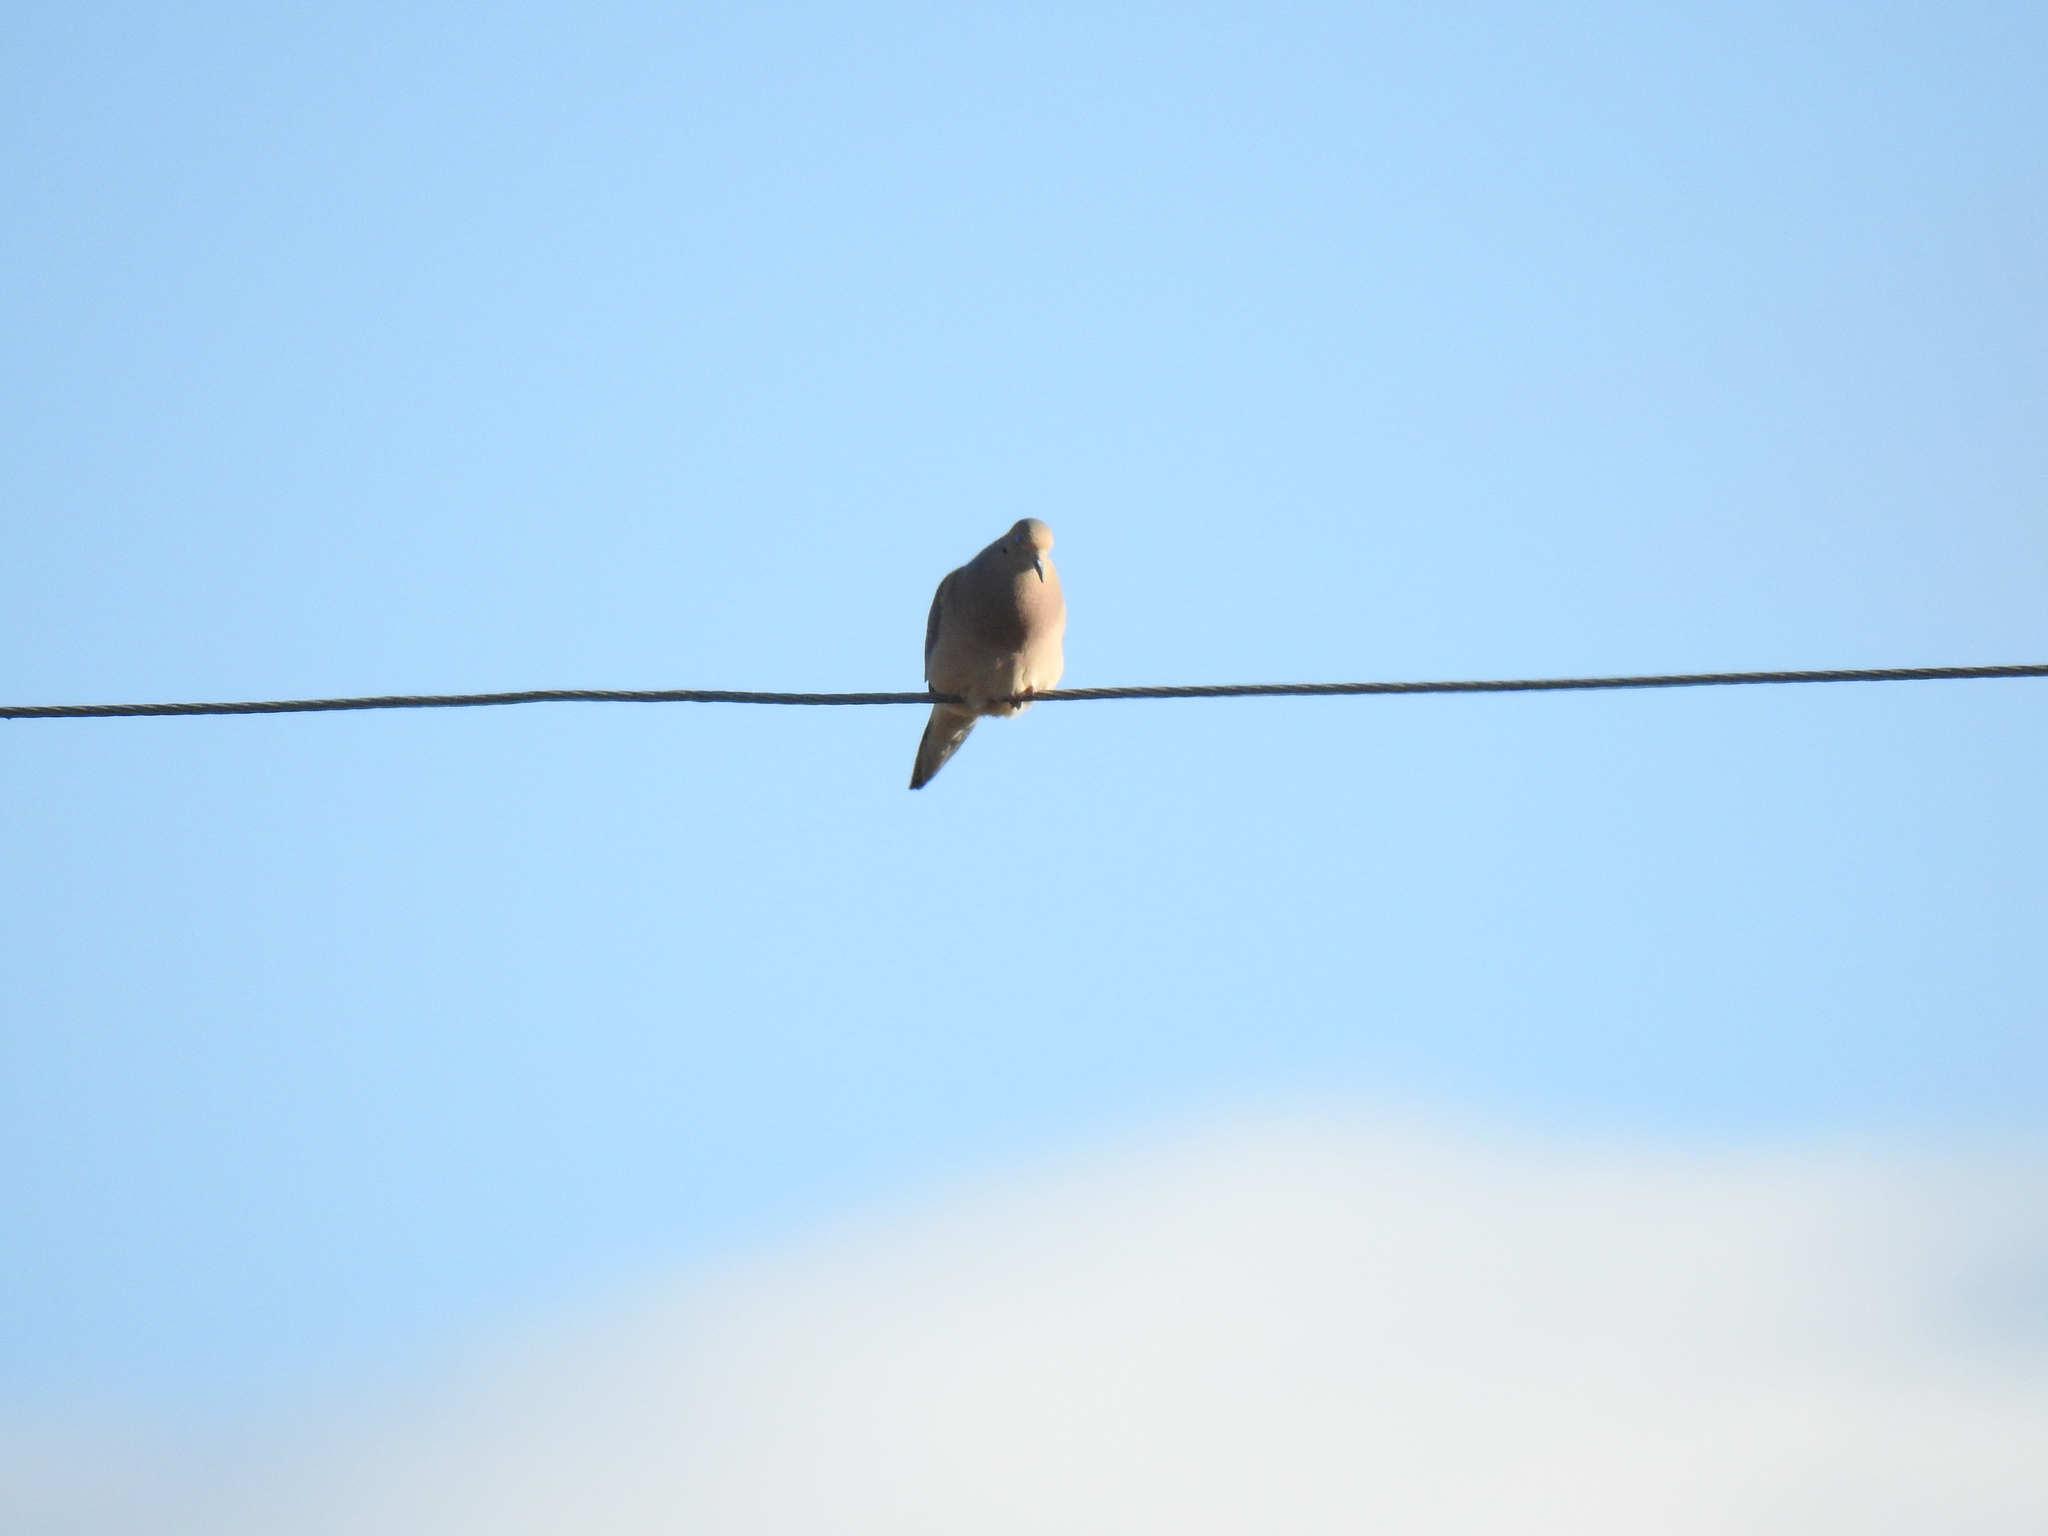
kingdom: Animalia
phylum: Chordata
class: Aves
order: Columbiformes
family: Columbidae
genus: Zenaida
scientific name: Zenaida macroura
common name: Mourning dove
